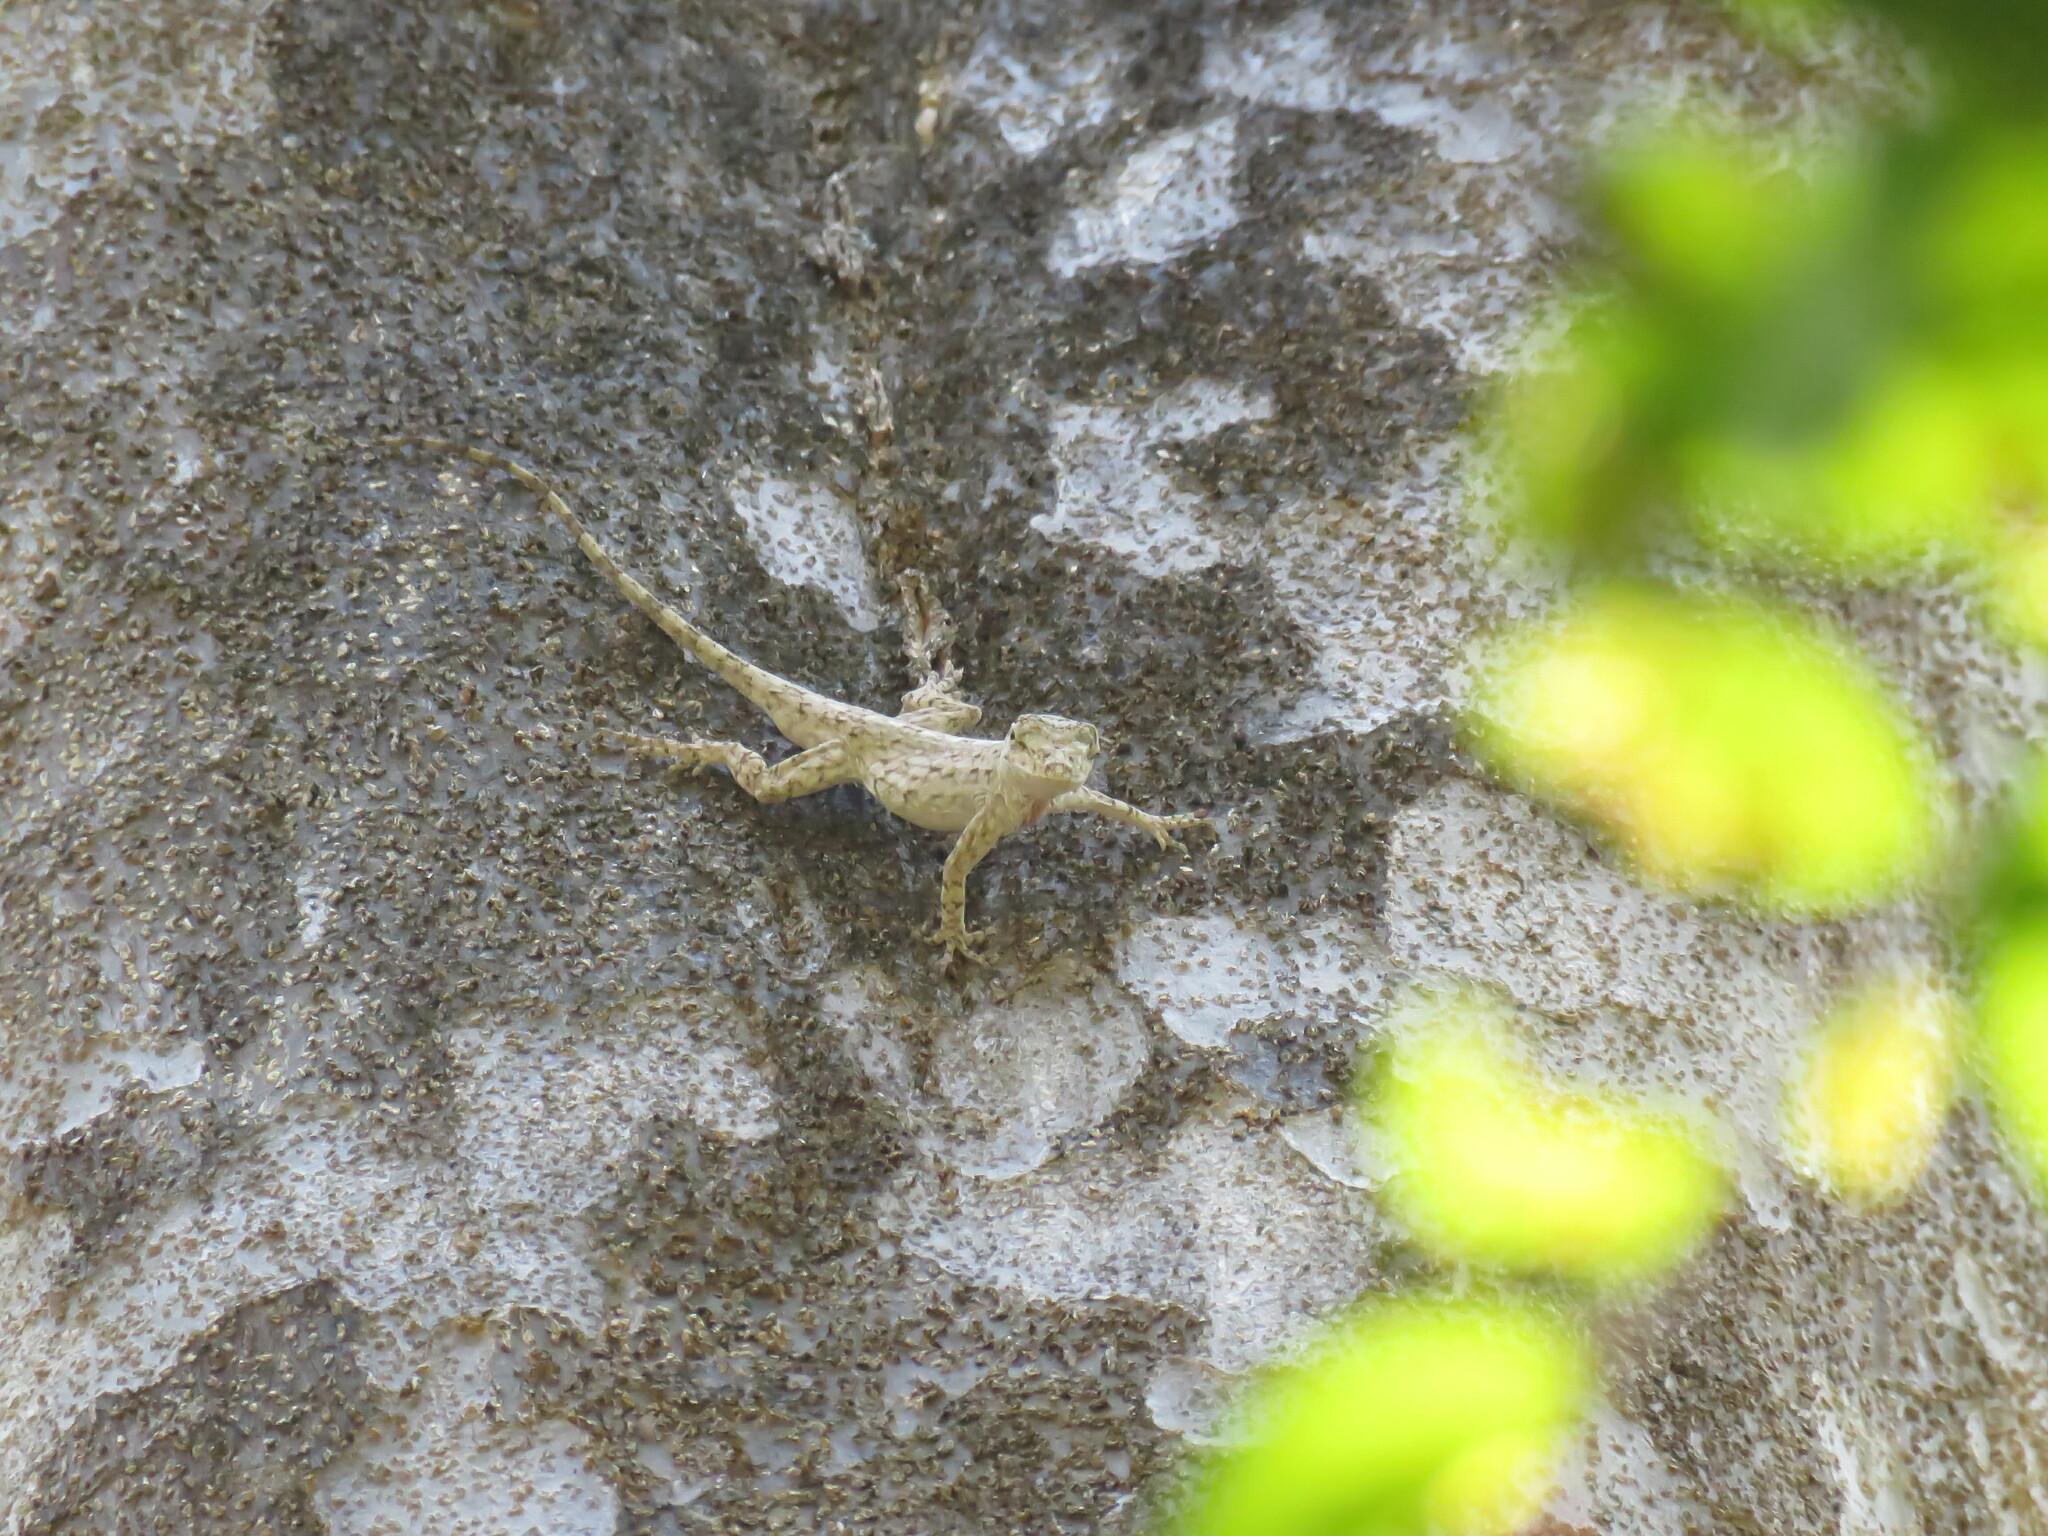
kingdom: Animalia
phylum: Chordata
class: Squamata
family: Dactyloidae
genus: Anolis
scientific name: Anolis beckeri
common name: Becker’s anole
